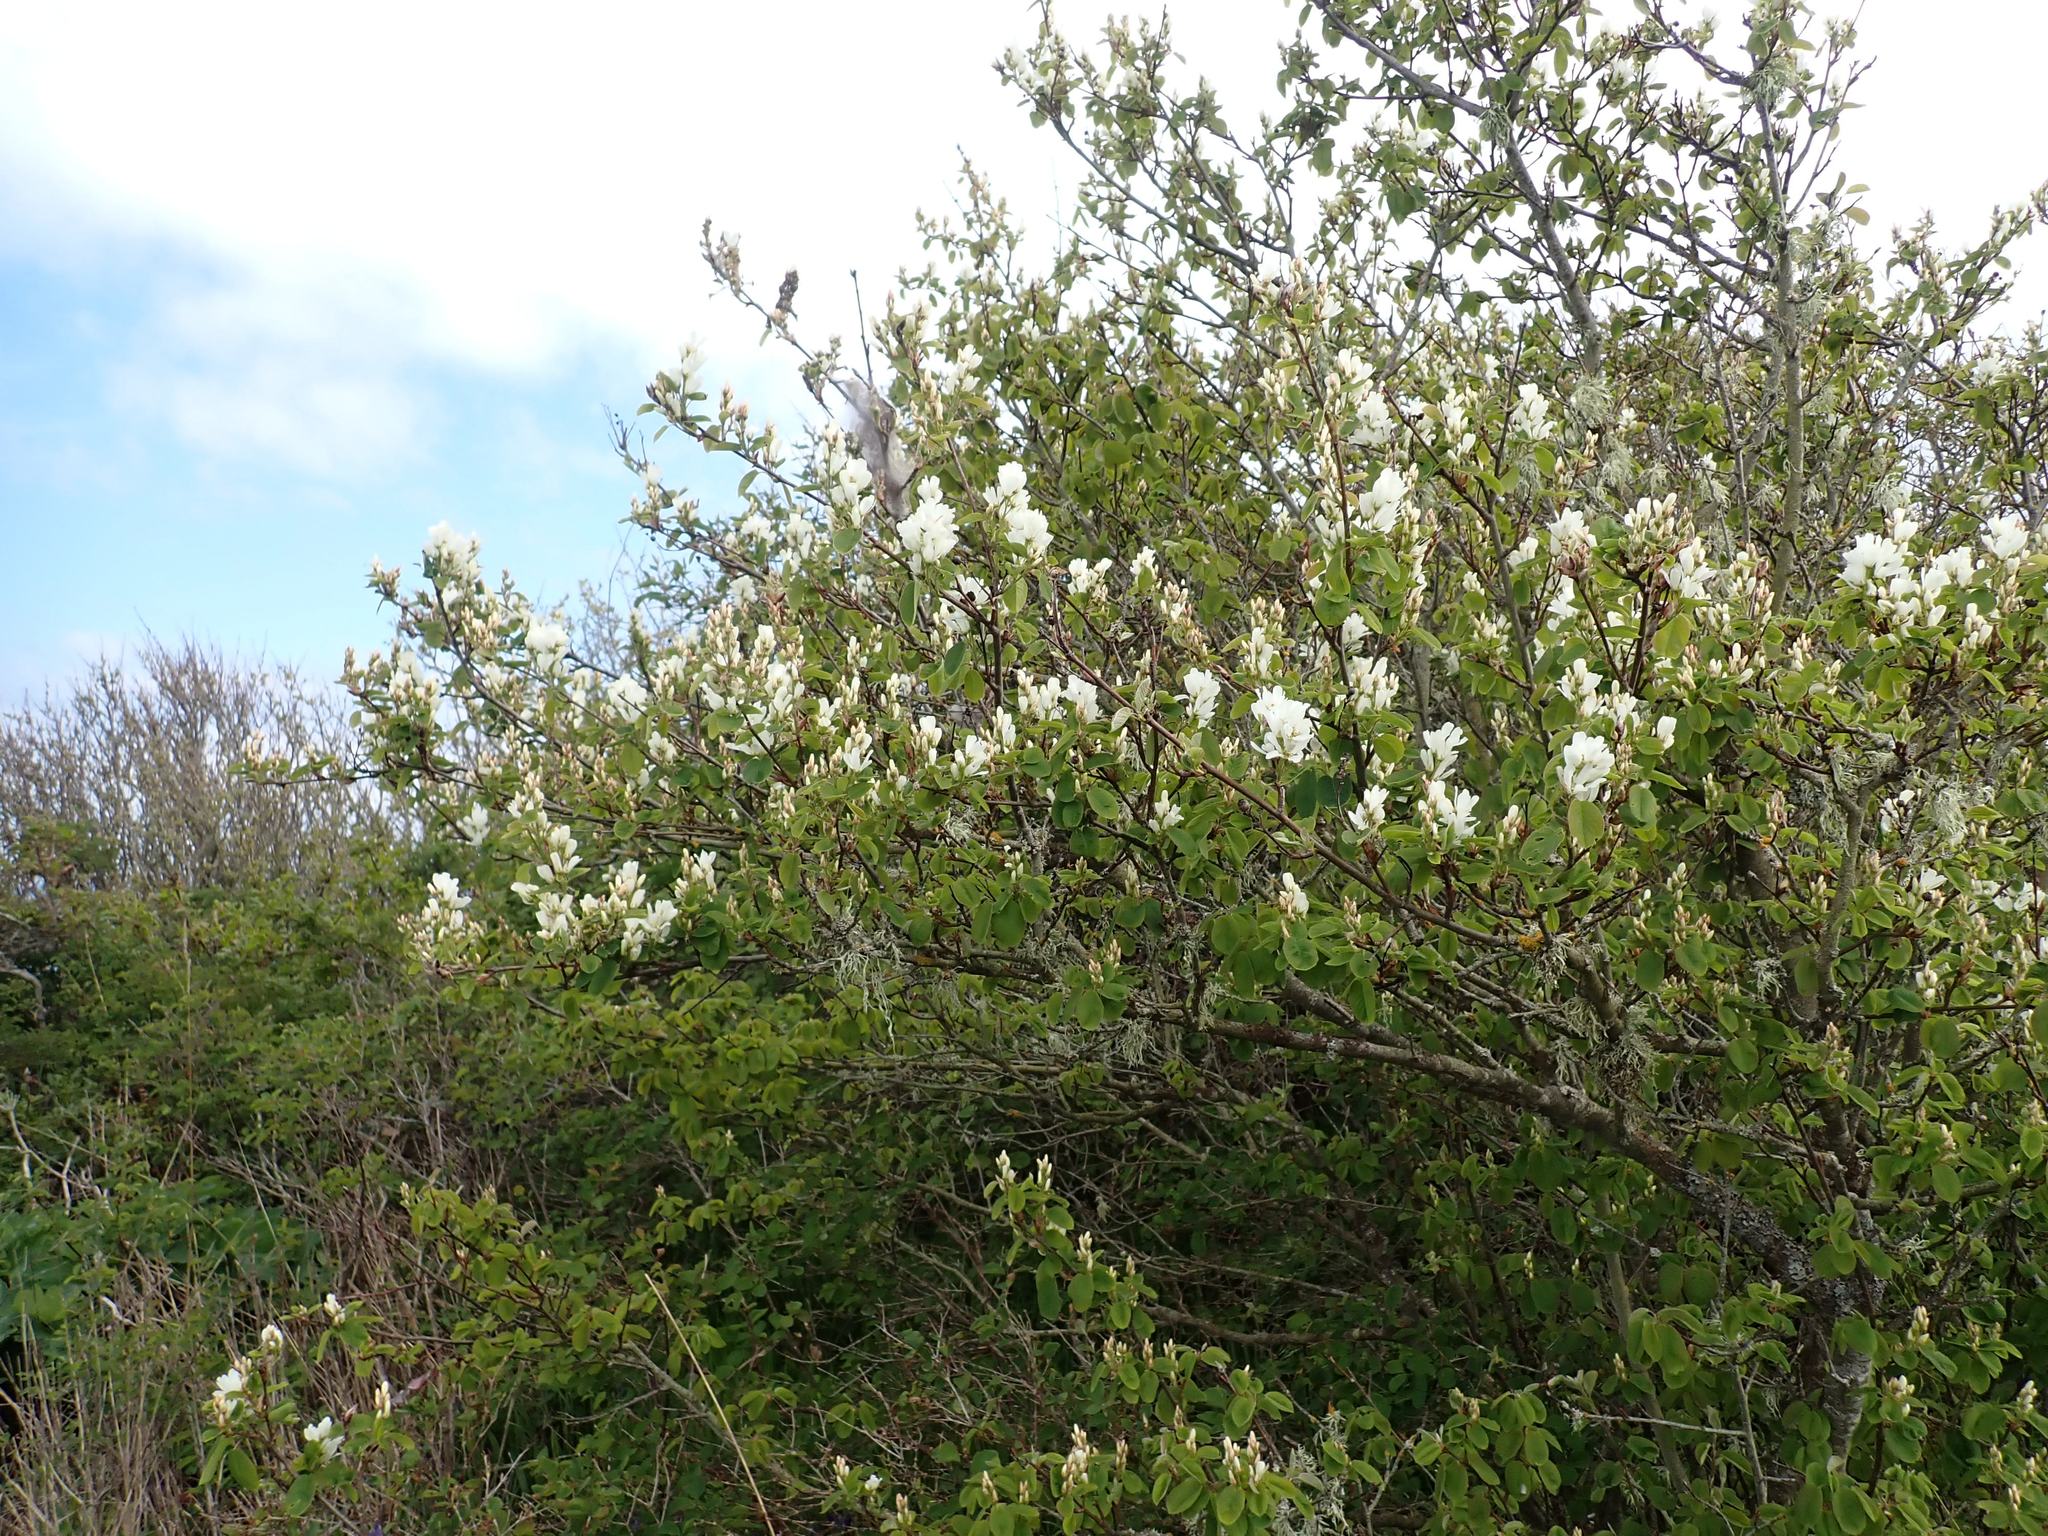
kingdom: Plantae
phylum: Tracheophyta
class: Magnoliopsida
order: Rosales
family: Rosaceae
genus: Amelanchier
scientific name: Amelanchier alnifolia
